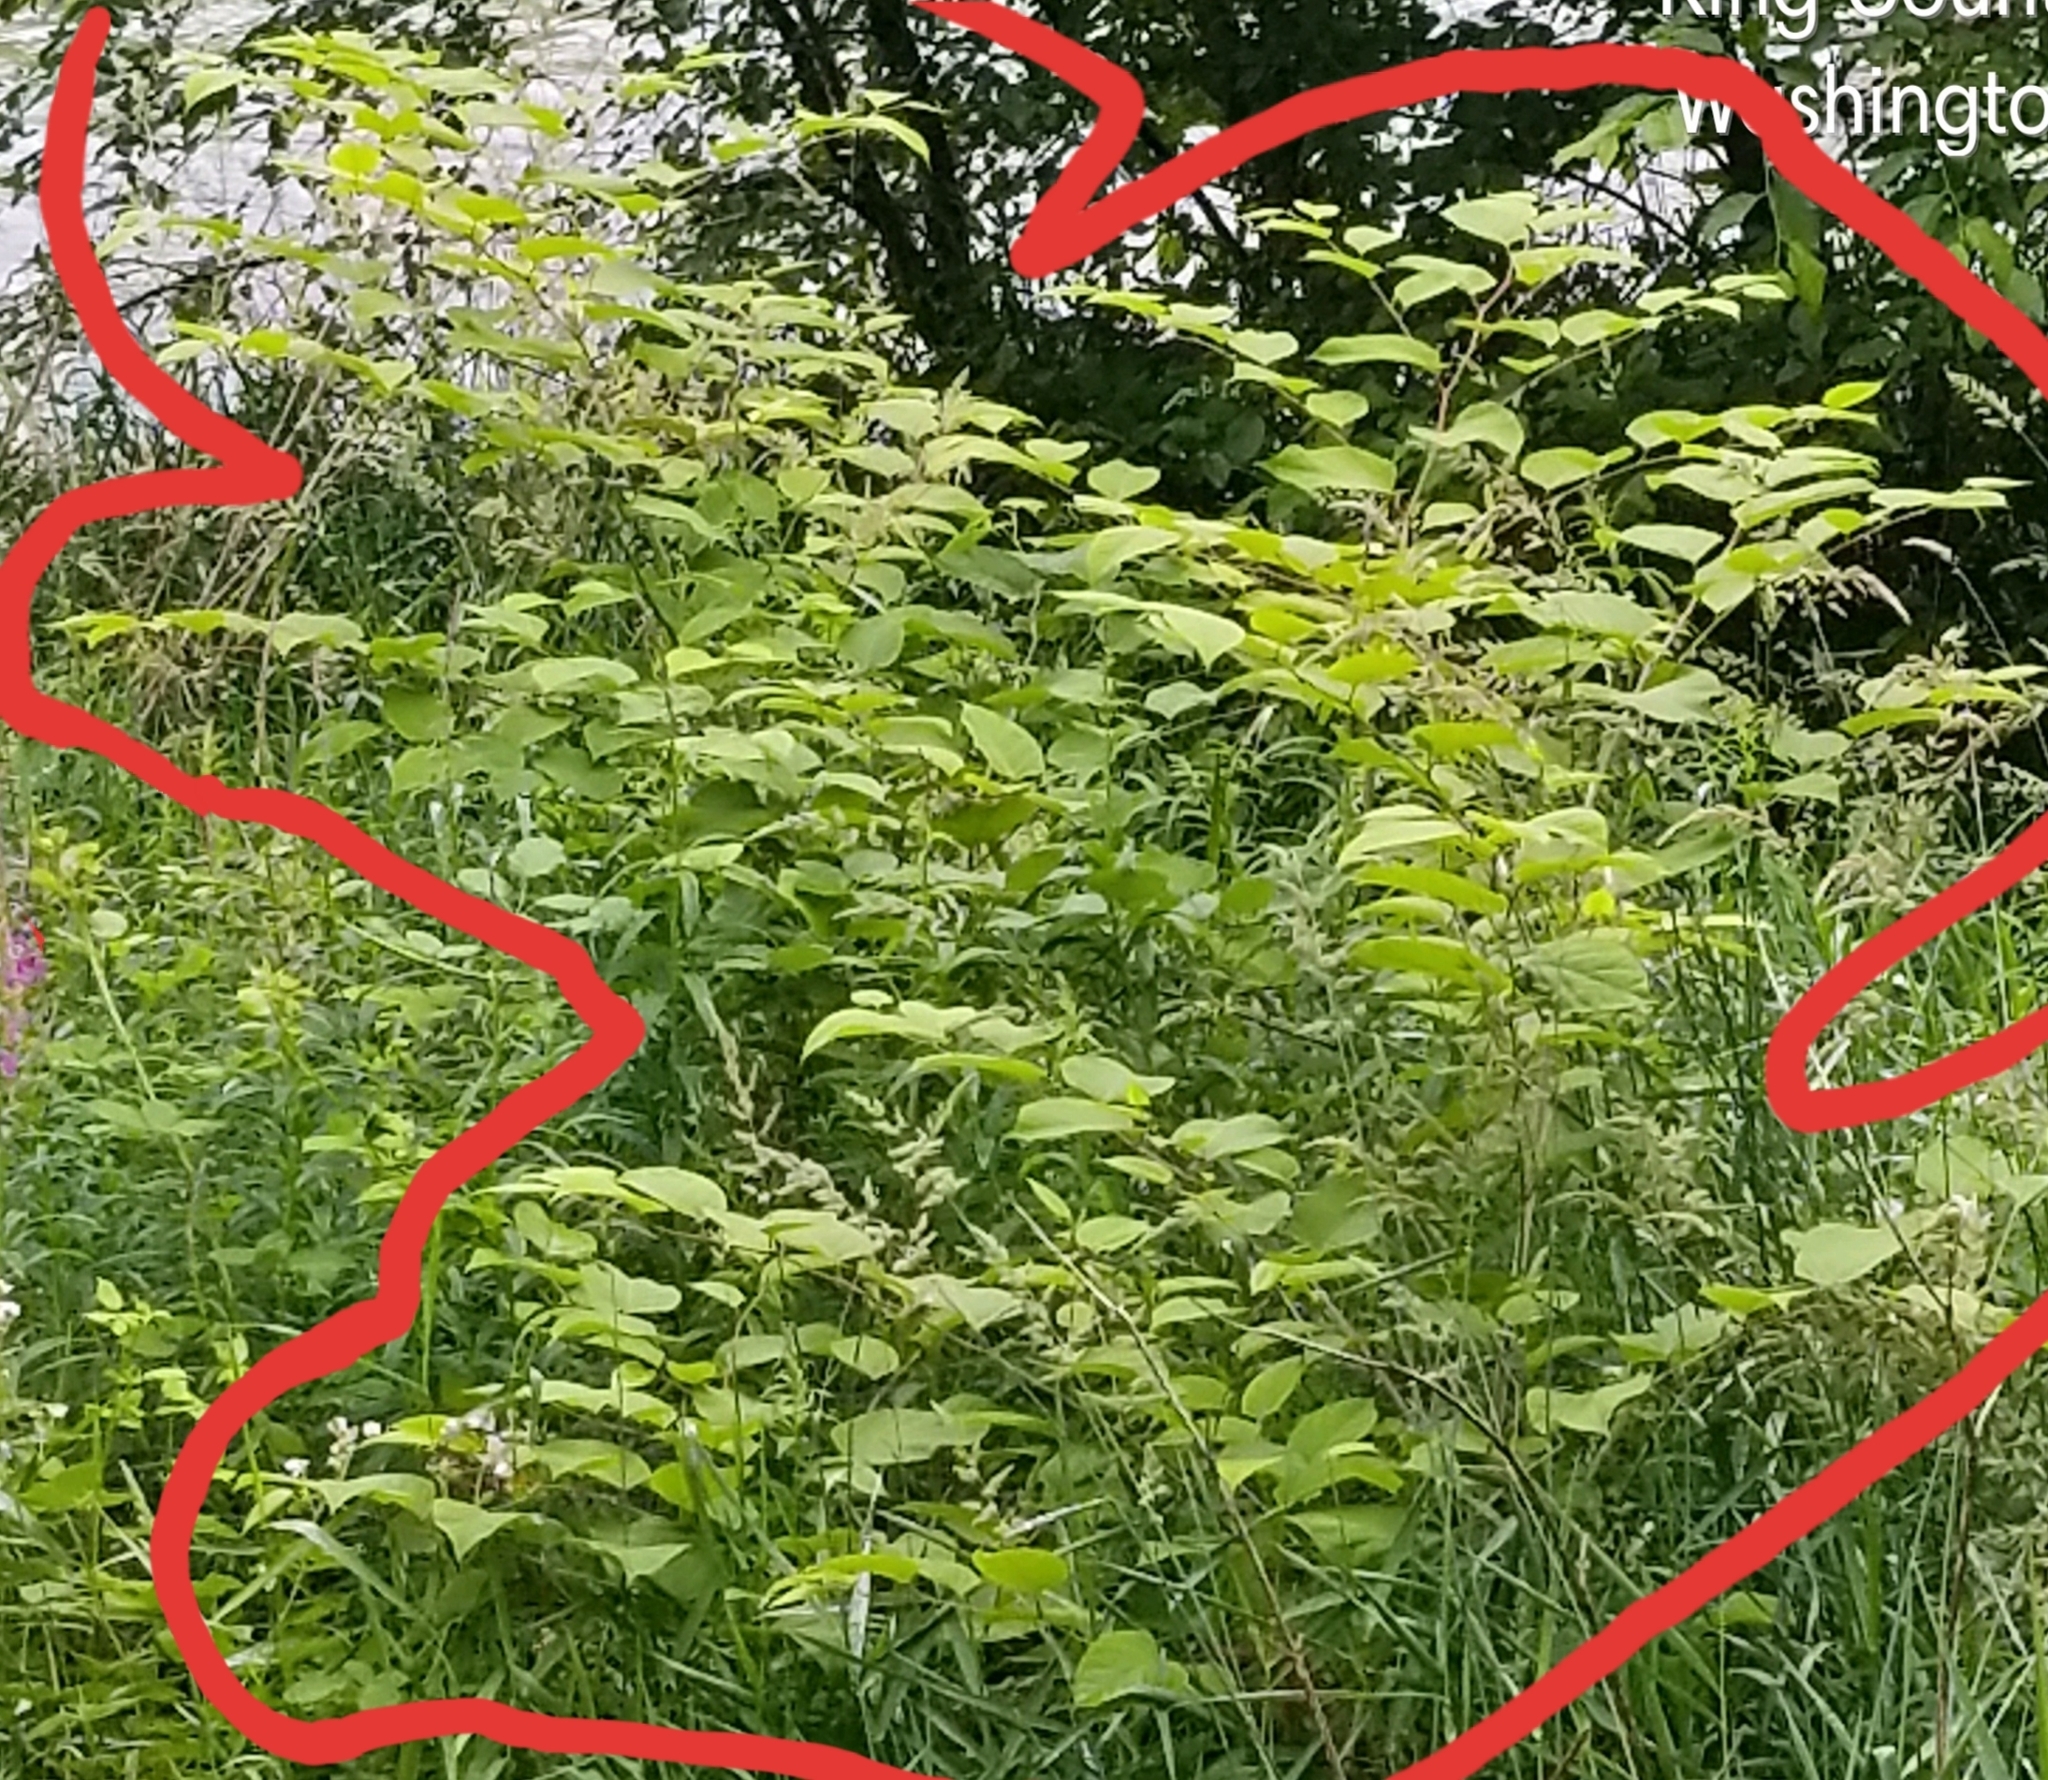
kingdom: Plantae
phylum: Tracheophyta
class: Magnoliopsida
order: Caryophyllales
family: Polygonaceae
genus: Reynoutria
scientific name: Reynoutria bohemica
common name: Bohemian knotweed
